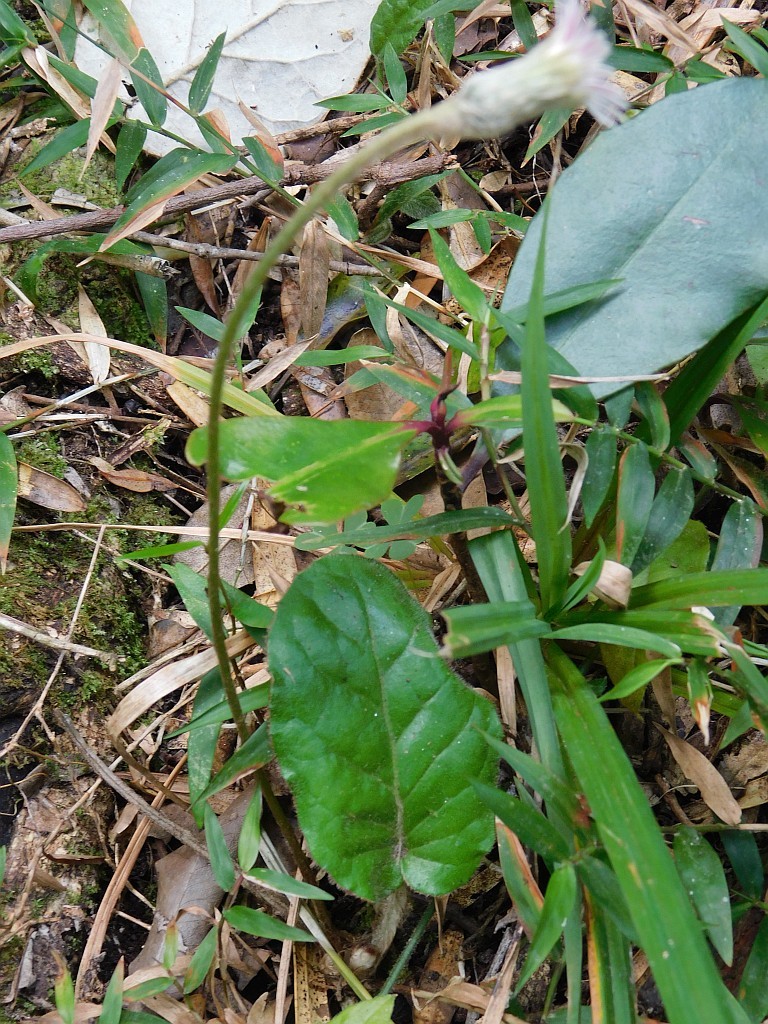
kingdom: Plantae
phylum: Tracheophyta
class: Magnoliopsida
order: Asterales
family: Asteraceae
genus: Piloselloides
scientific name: Piloselloides cordata
